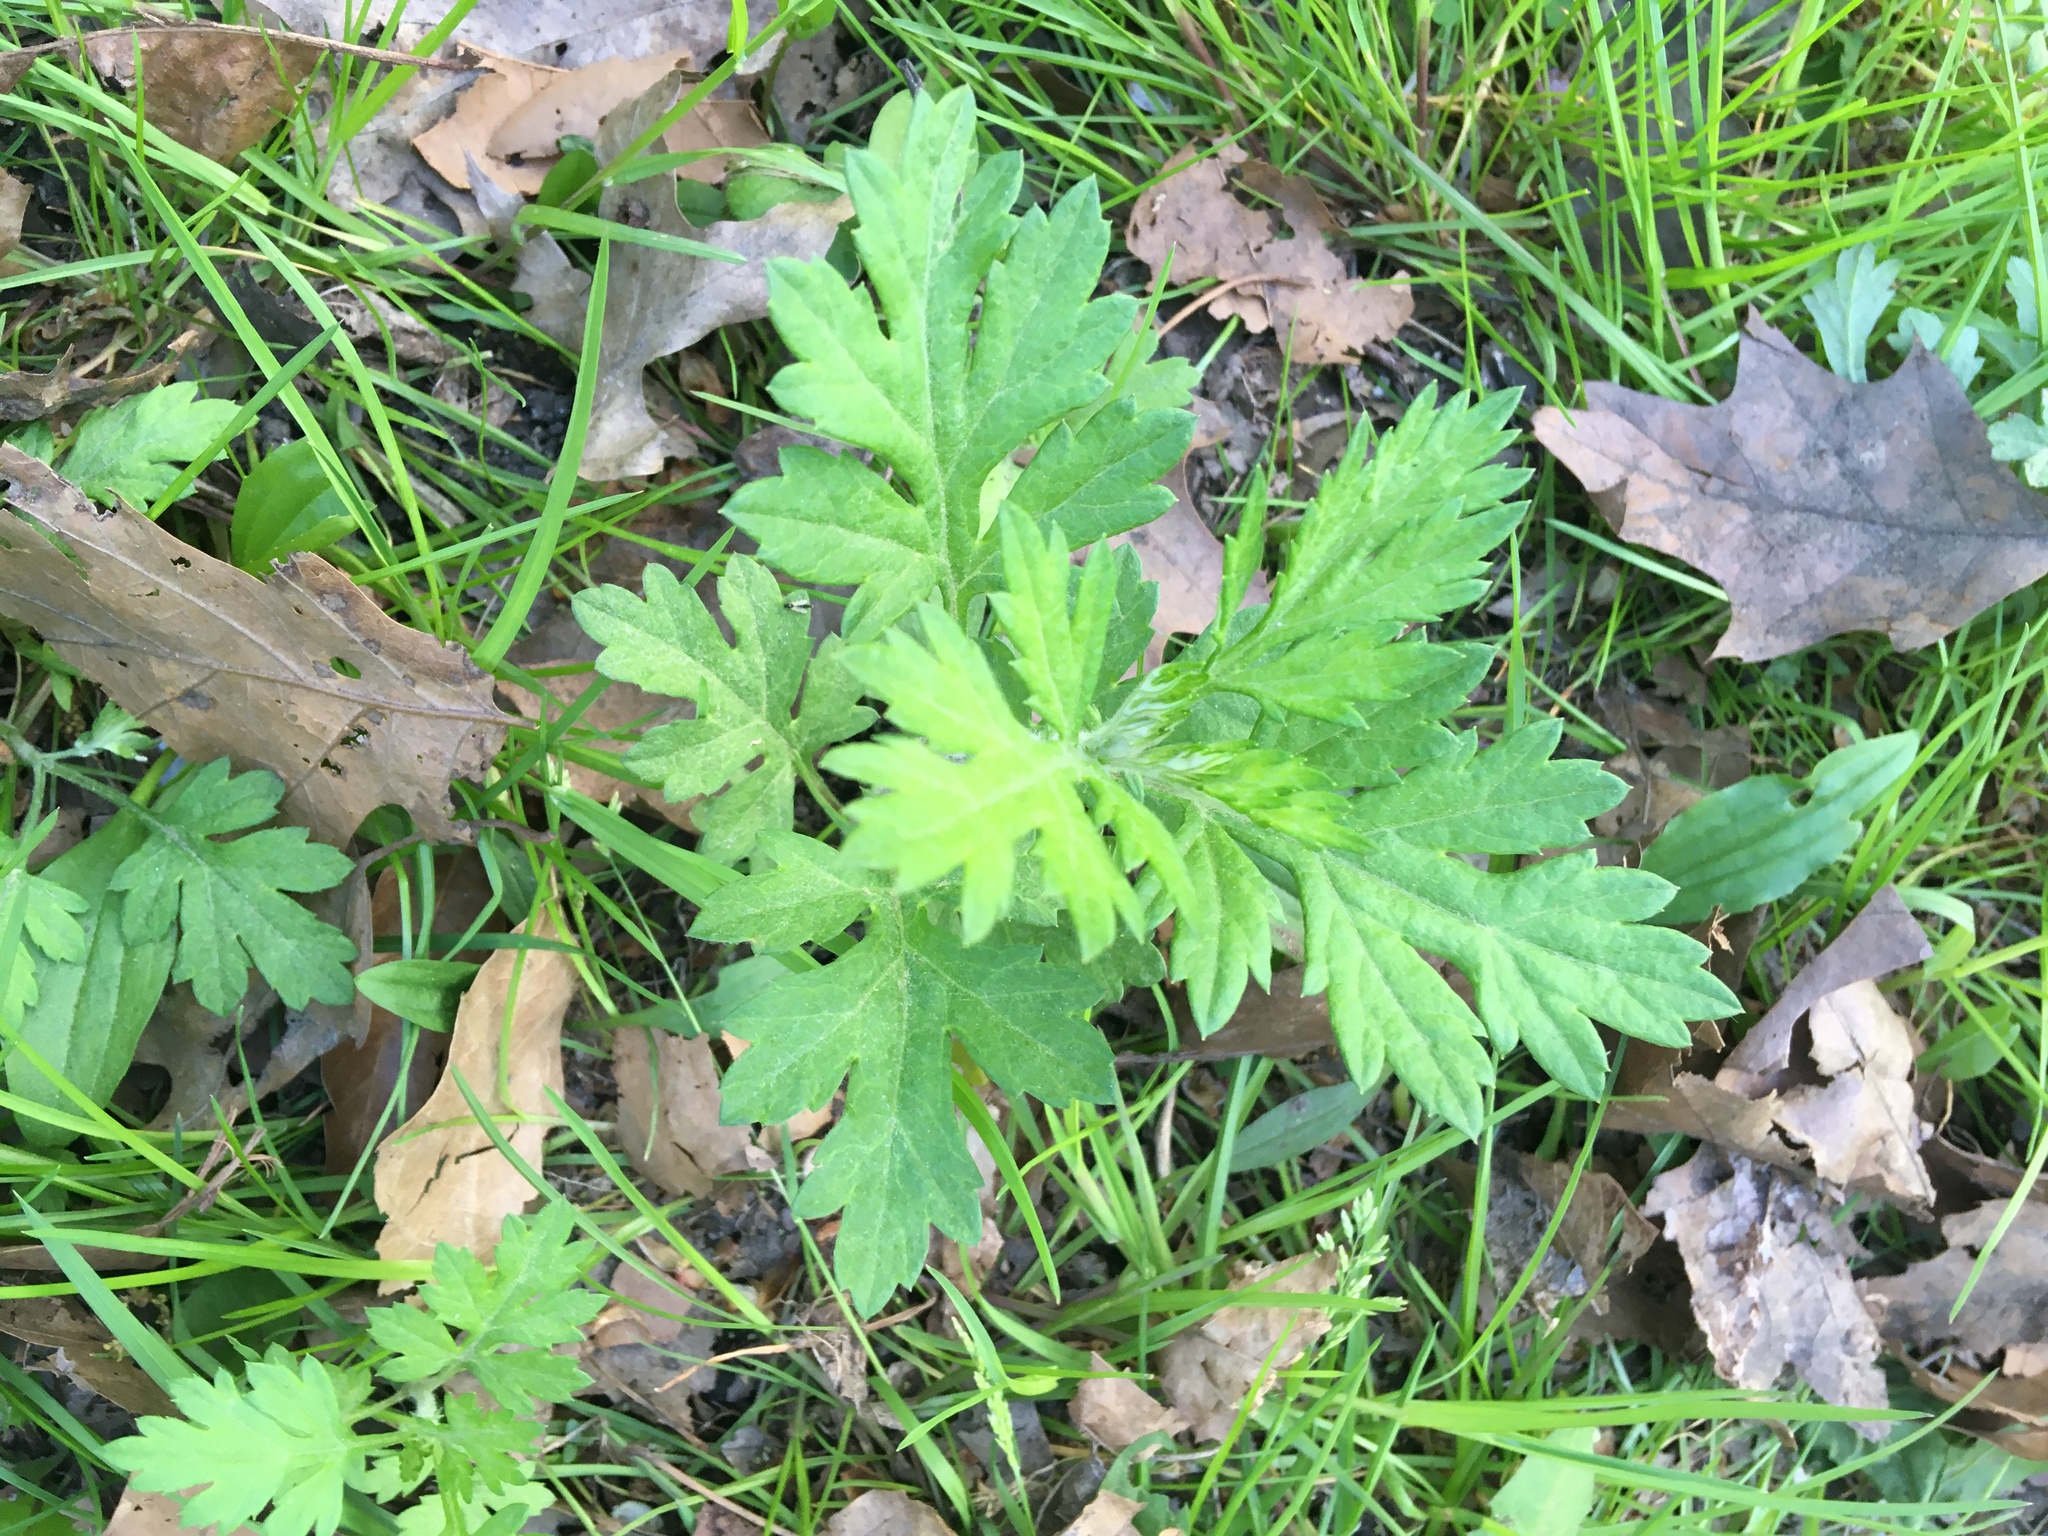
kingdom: Plantae
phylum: Tracheophyta
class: Magnoliopsida
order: Asterales
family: Asteraceae
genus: Artemisia
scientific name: Artemisia vulgaris
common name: Mugwort
